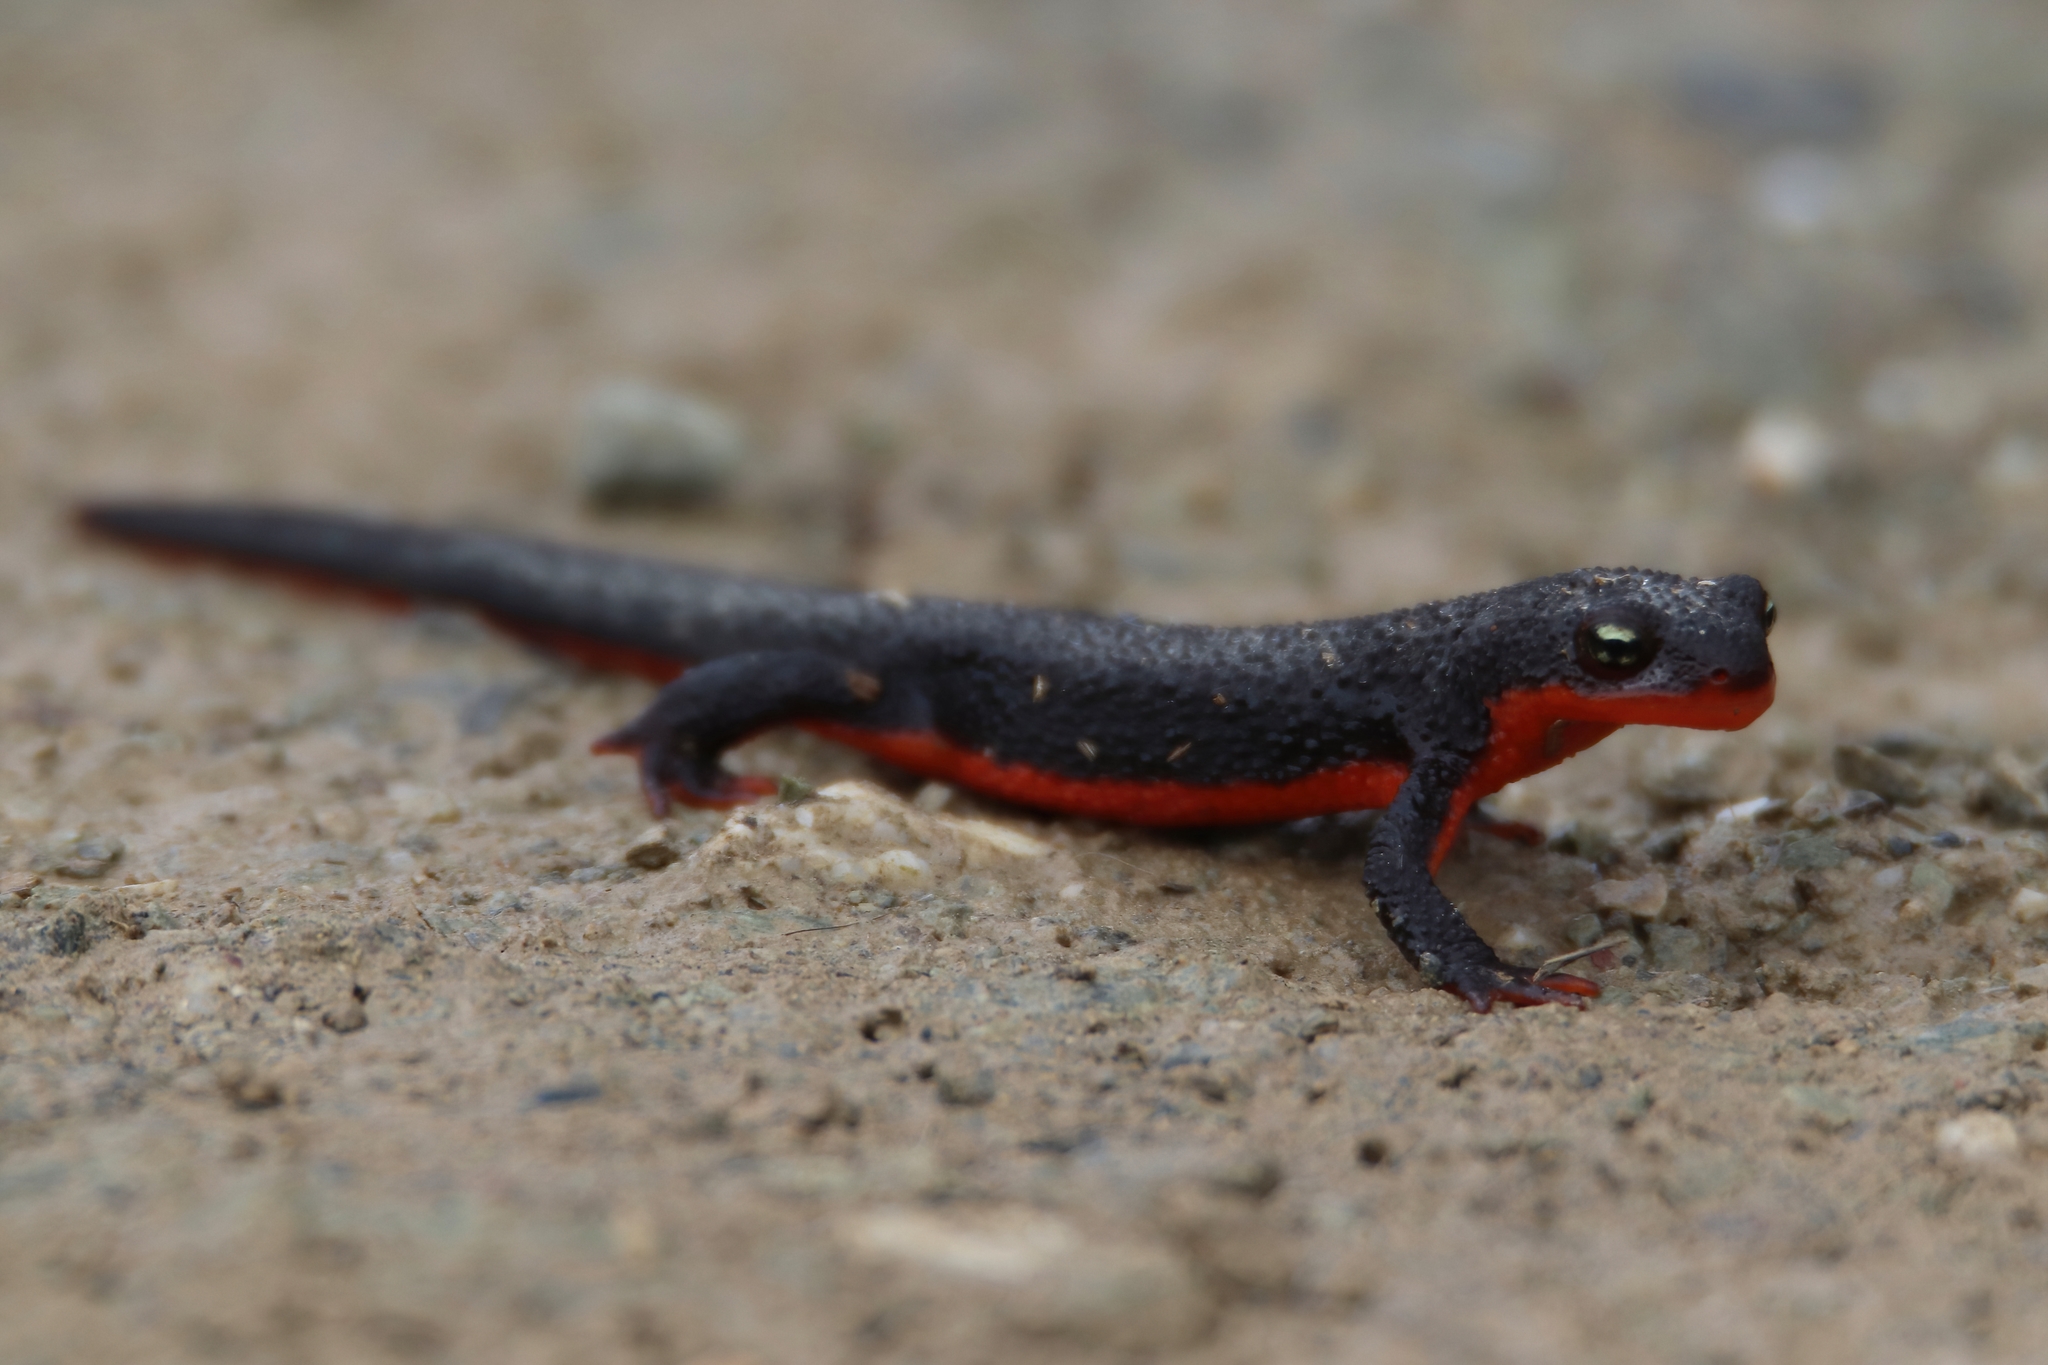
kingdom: Animalia
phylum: Chordata
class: Amphibia
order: Caudata
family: Salamandridae
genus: Taricha
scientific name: Taricha granulosa
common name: Roughskin newt
